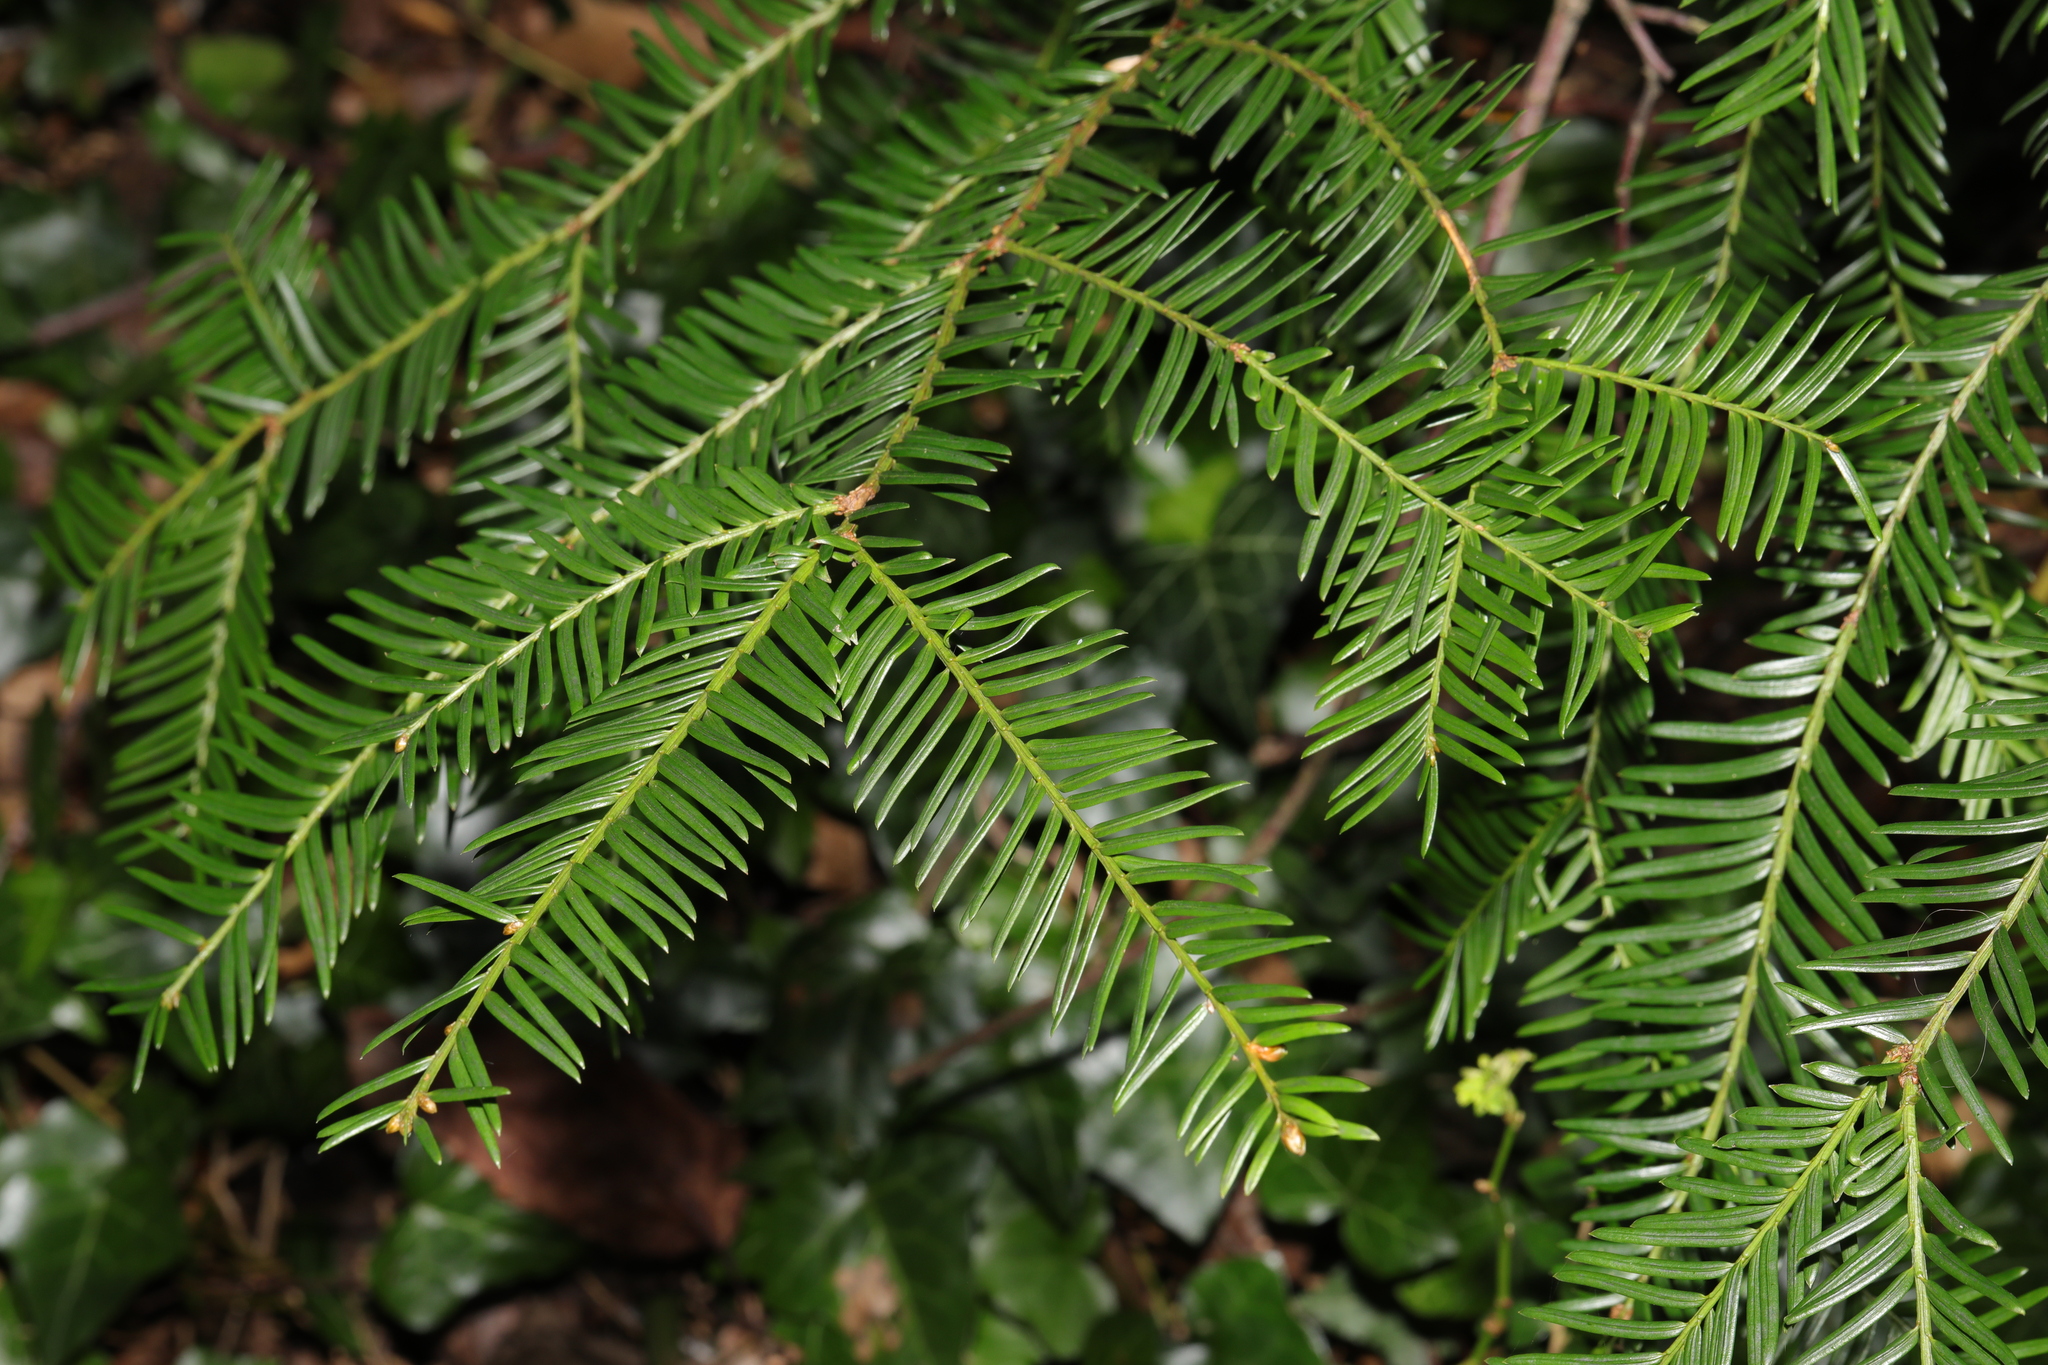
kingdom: Plantae
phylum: Tracheophyta
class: Pinopsida
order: Pinales
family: Taxaceae
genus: Taxus
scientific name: Taxus baccata
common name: Yew
